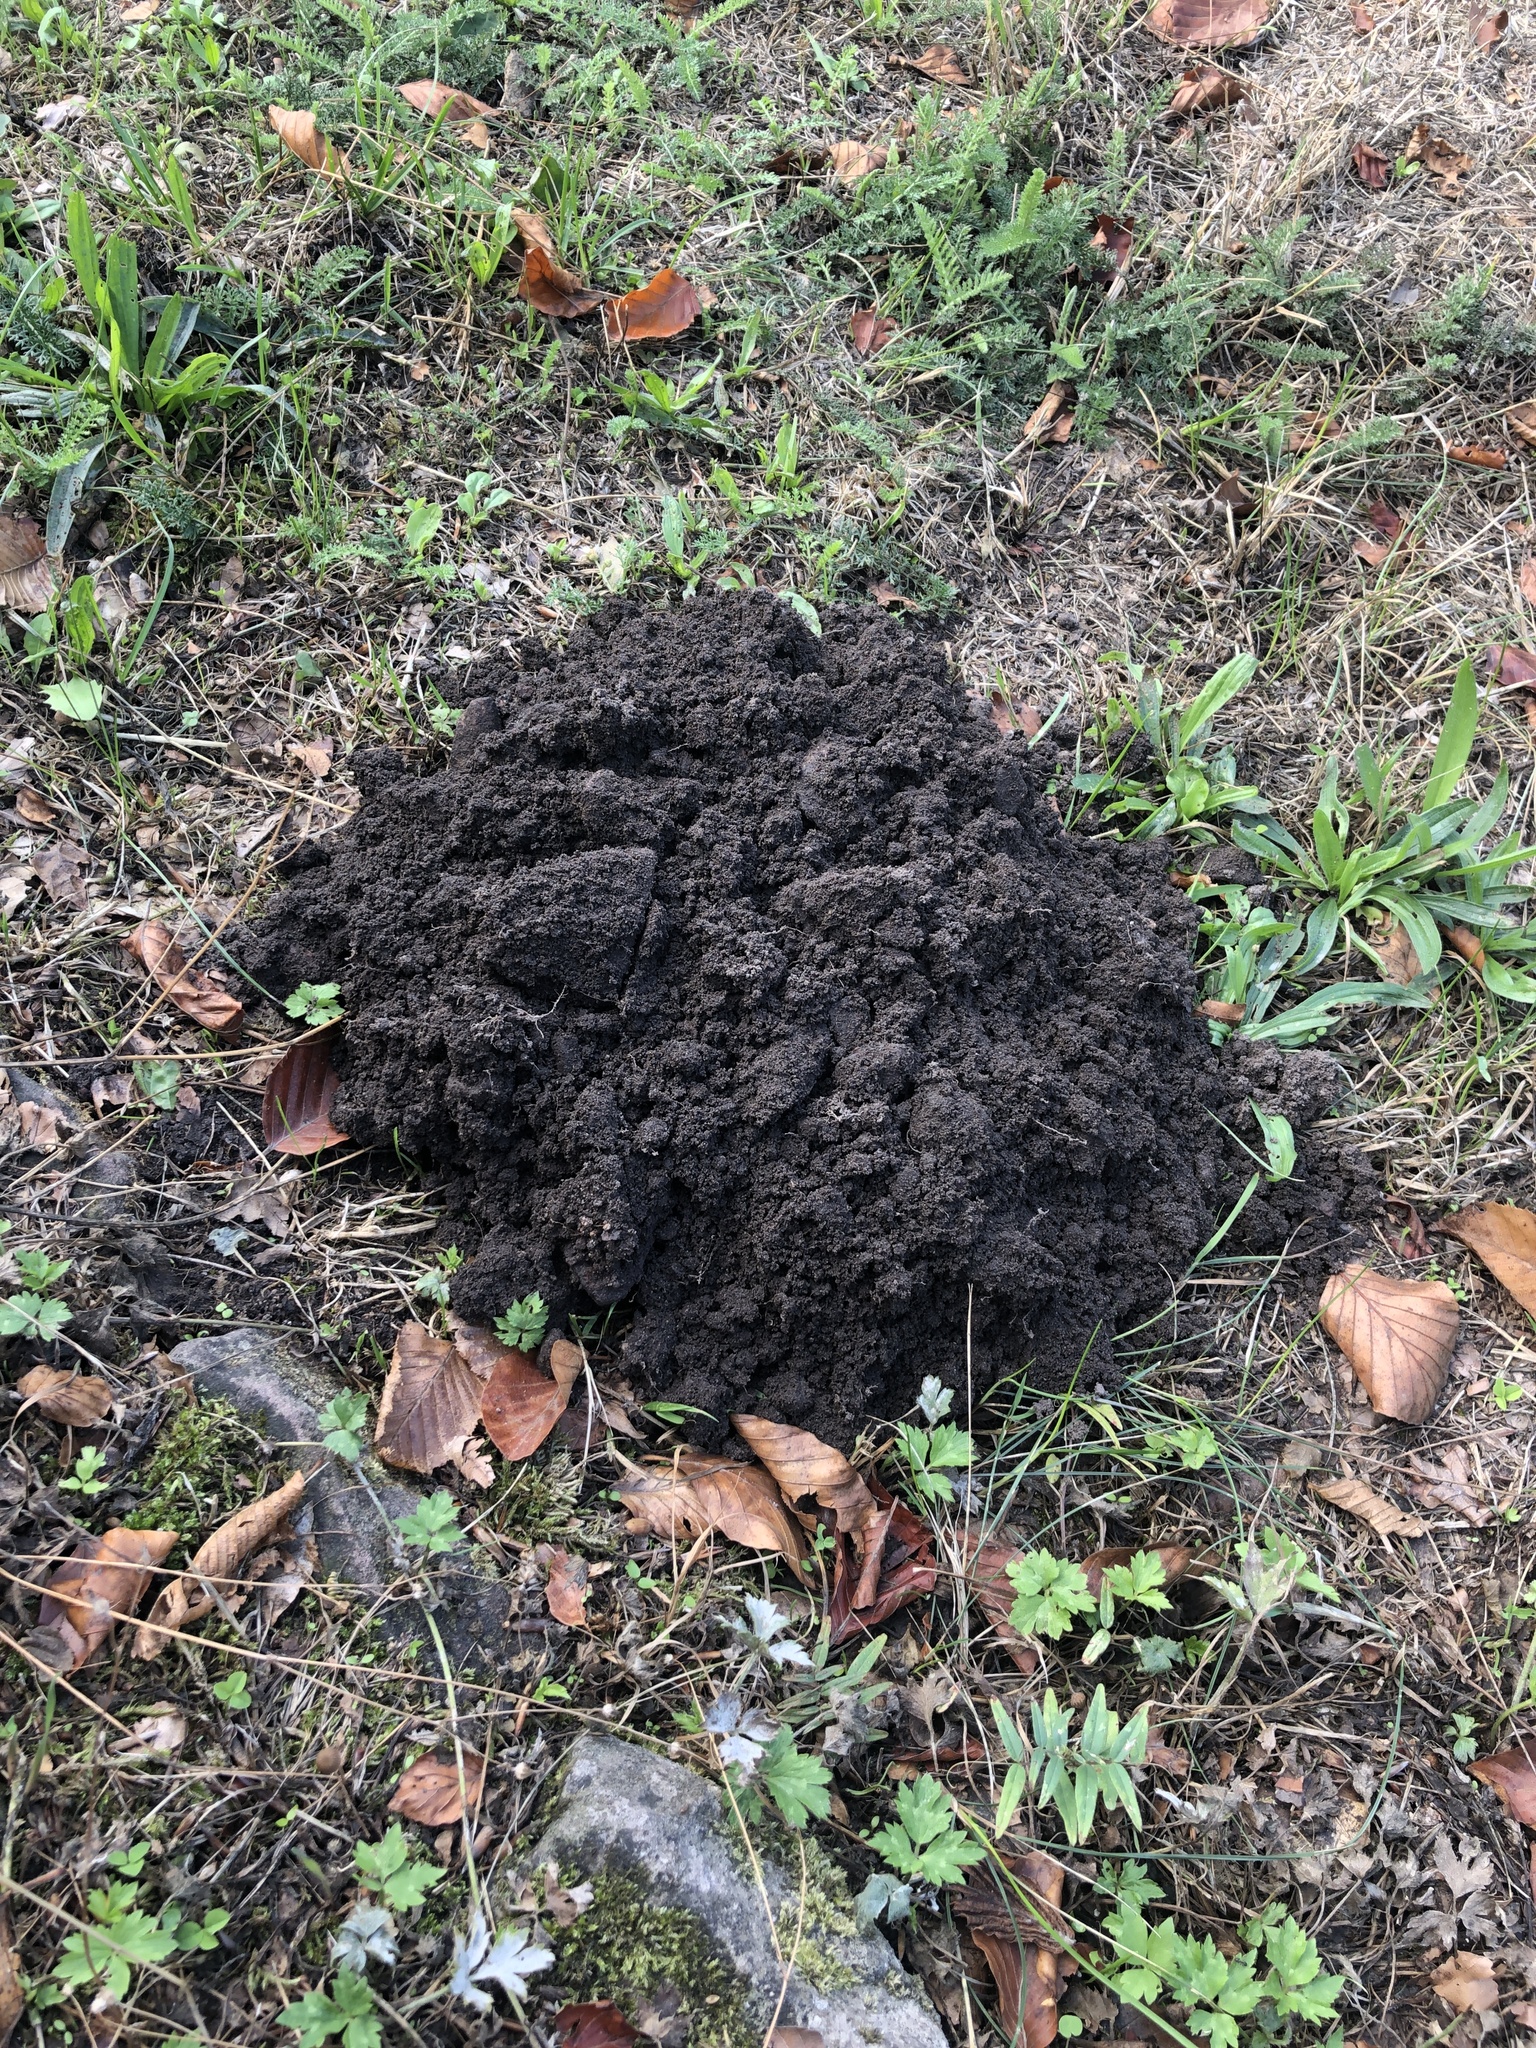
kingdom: Animalia
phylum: Chordata
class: Mammalia
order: Soricomorpha
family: Talpidae
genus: Talpa
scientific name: Talpa europaea
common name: European mole
